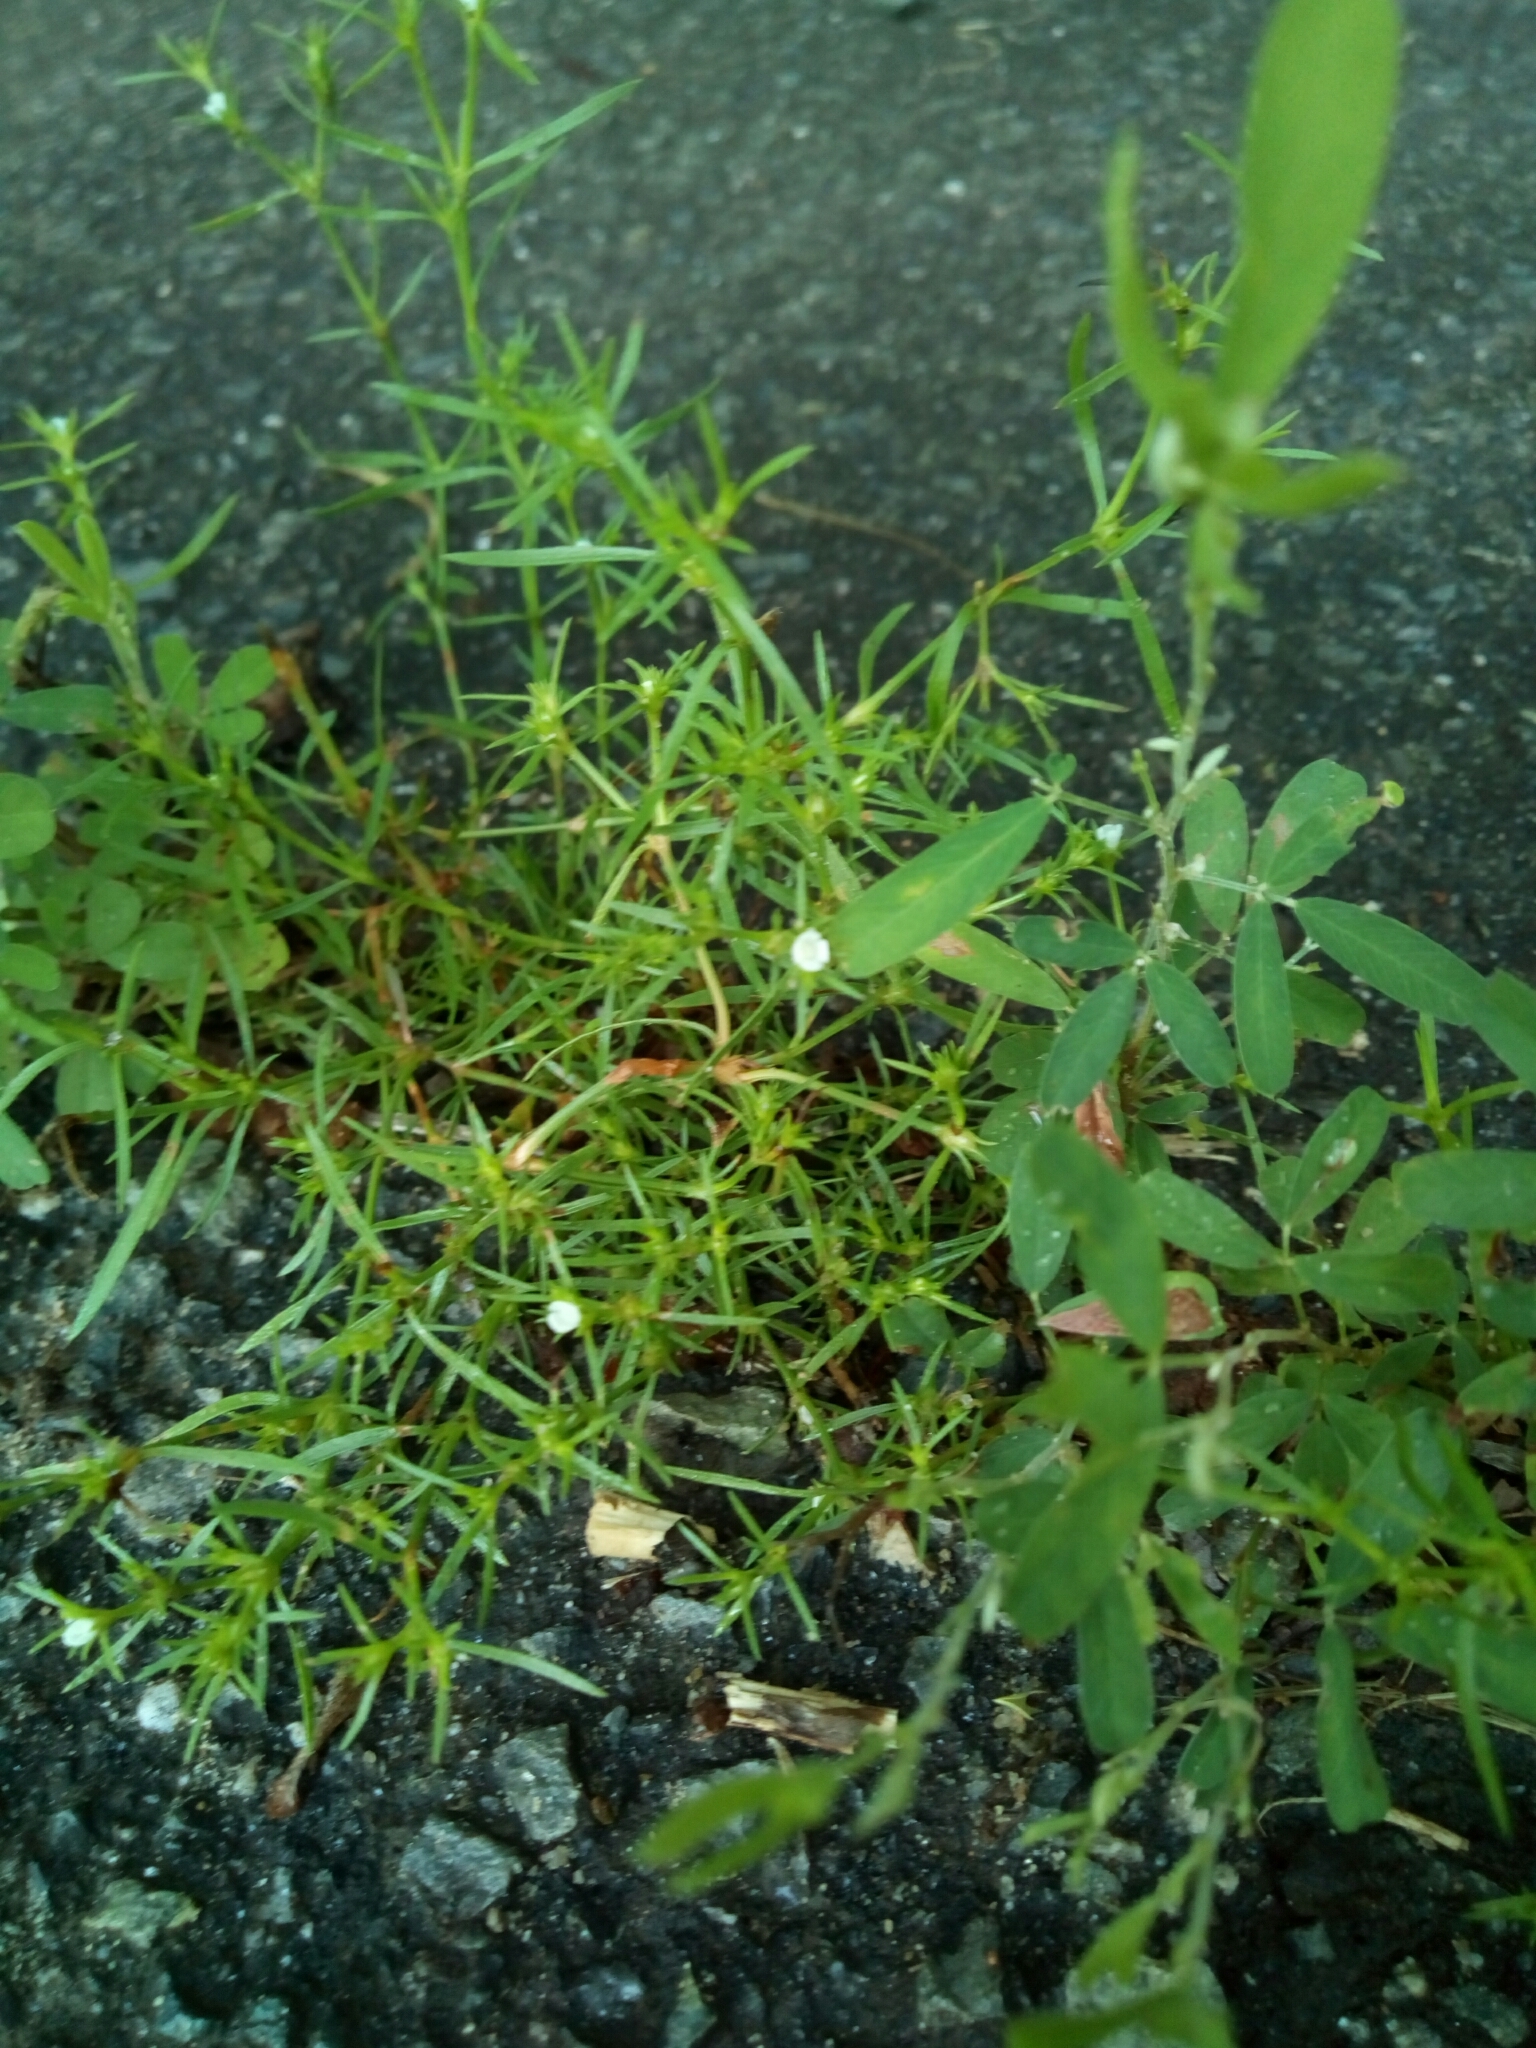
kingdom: Plantae
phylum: Tracheophyta
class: Magnoliopsida
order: Lamiales
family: Tetrachondraceae
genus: Polypremum
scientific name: Polypremum procumbens
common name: Juniper-leaf
